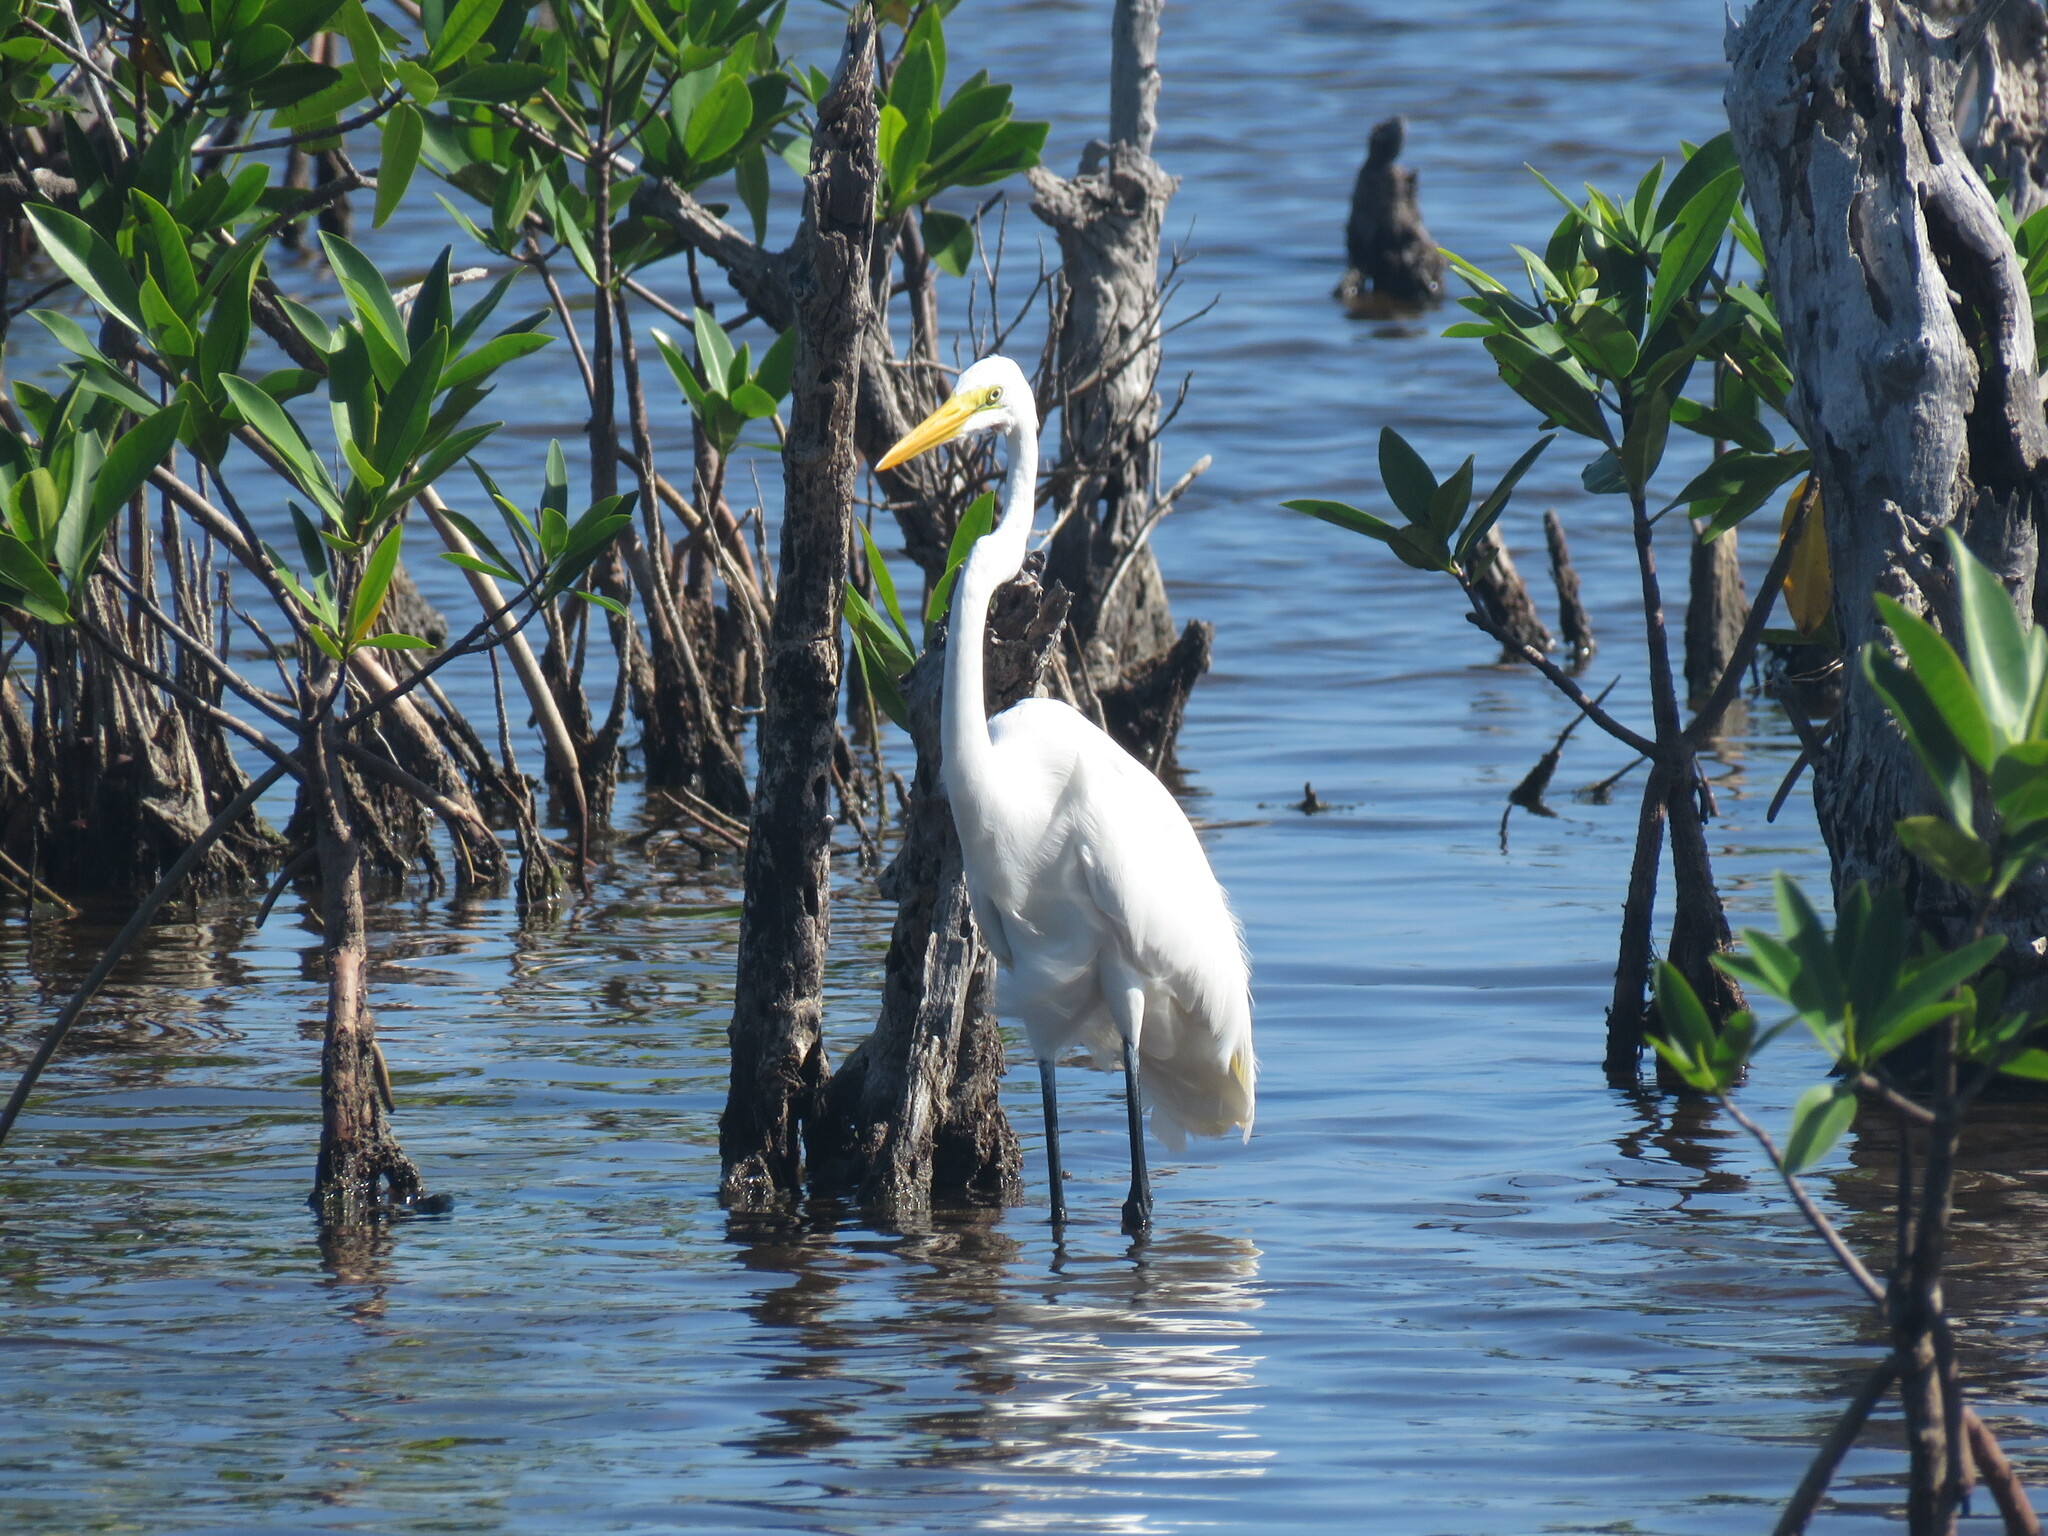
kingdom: Animalia
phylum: Chordata
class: Aves
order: Pelecaniformes
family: Ardeidae
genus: Ardea
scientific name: Ardea alba
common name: Great egret
